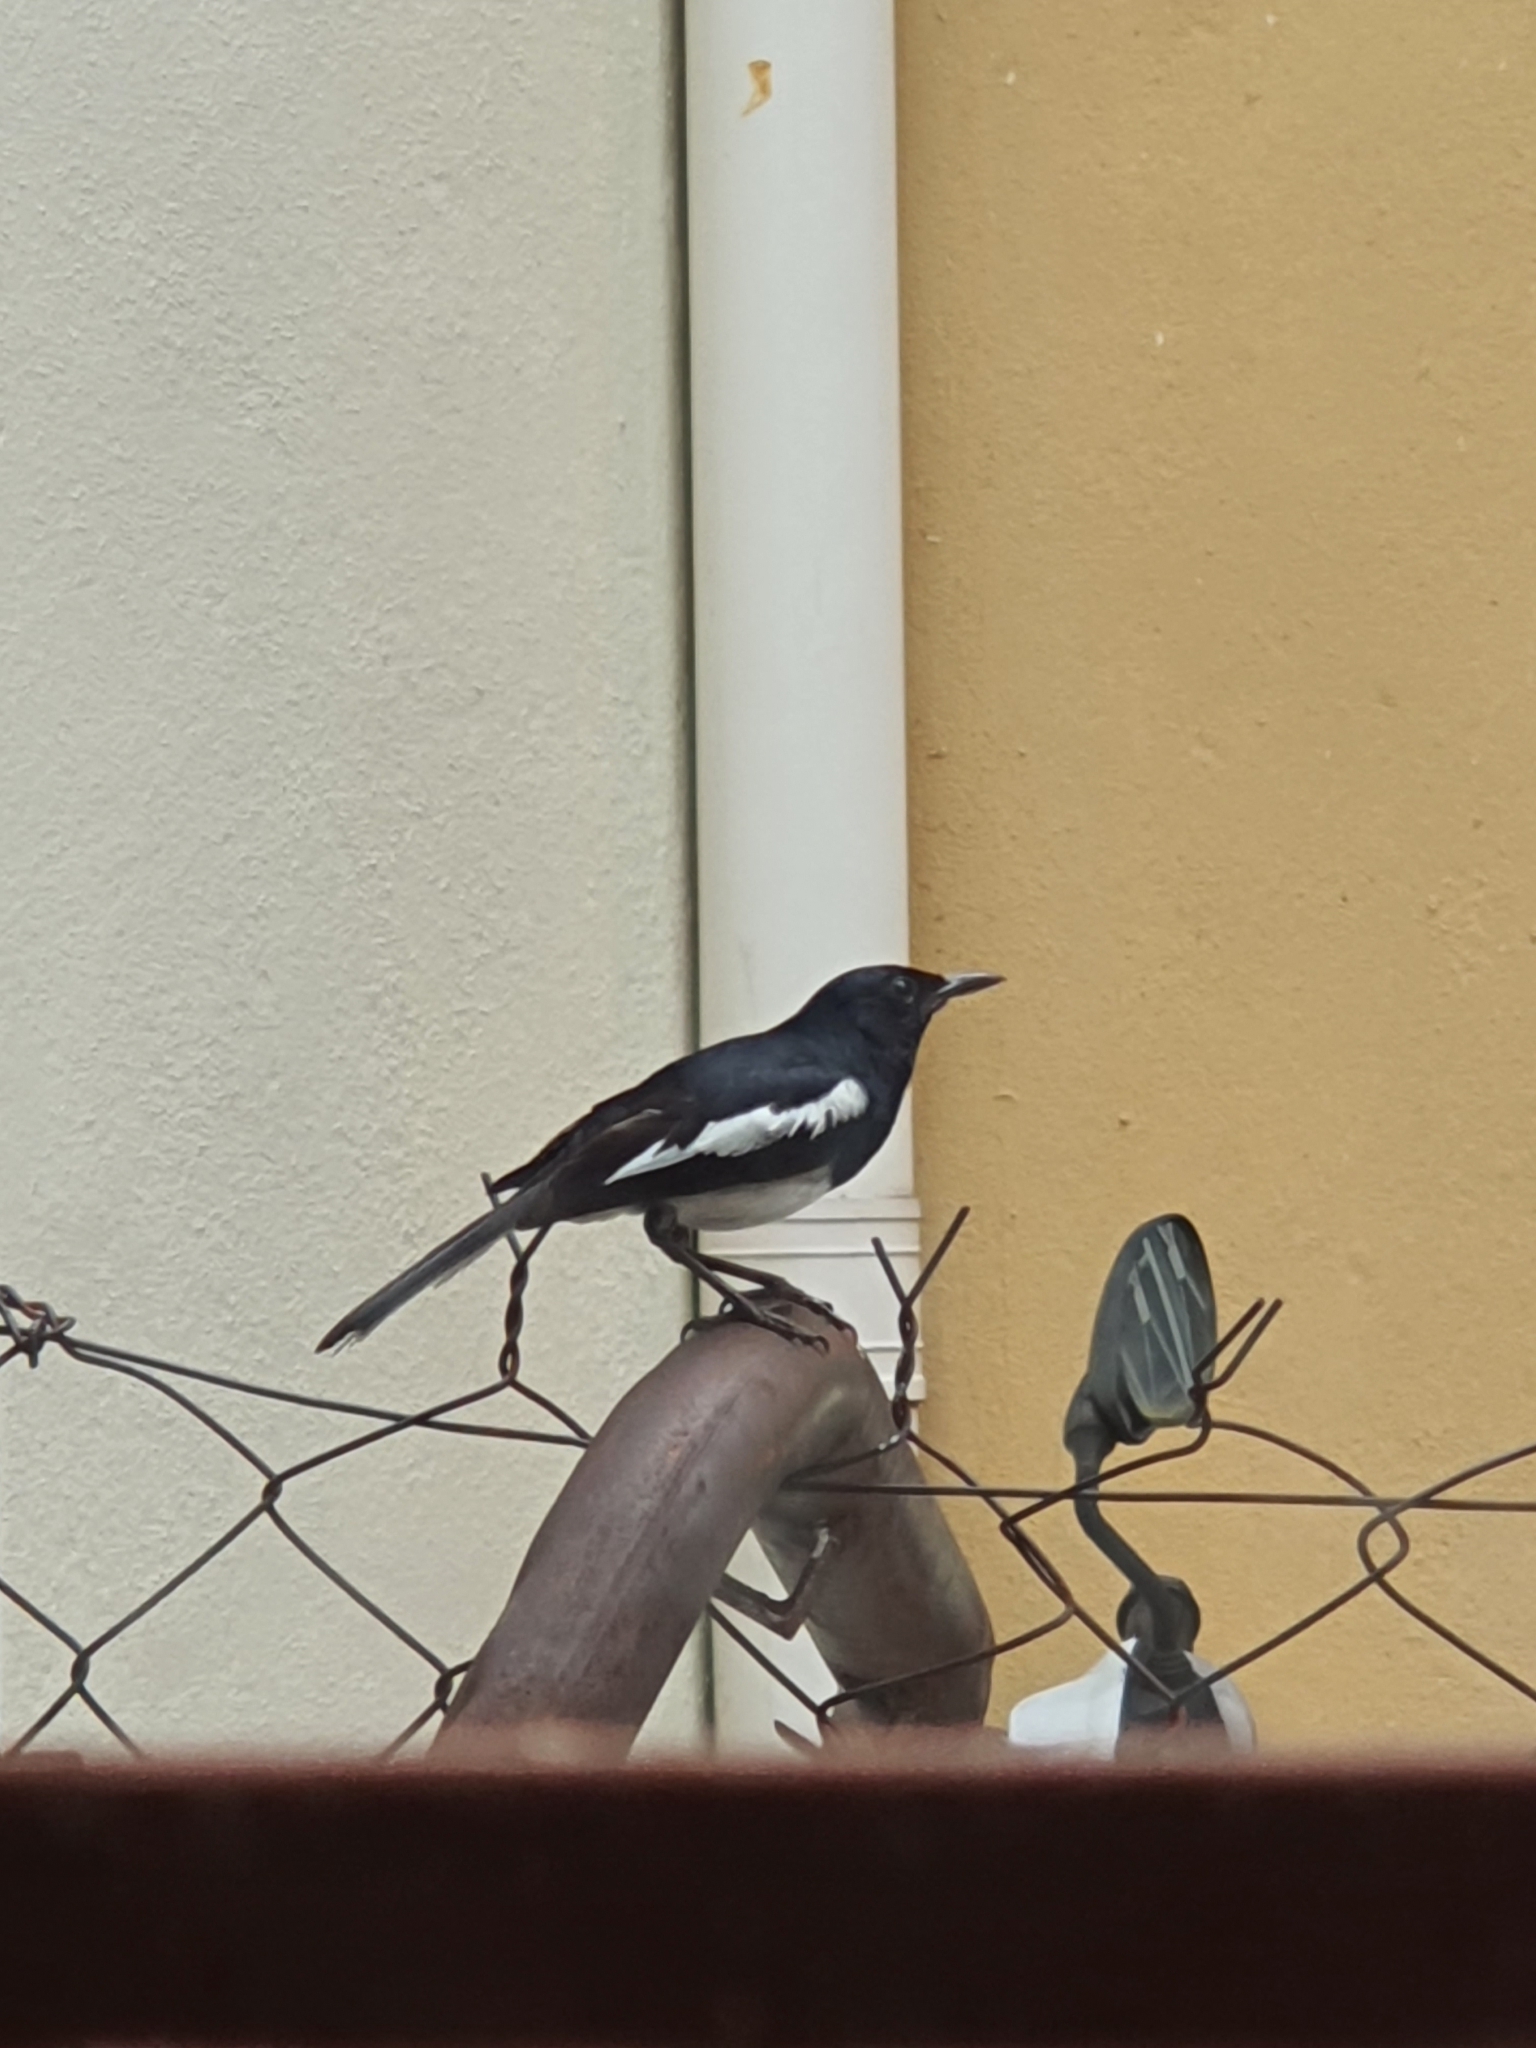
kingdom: Animalia
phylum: Chordata
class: Aves
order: Passeriformes
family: Muscicapidae
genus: Copsychus
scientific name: Copsychus saularis
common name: Oriental magpie-robin
